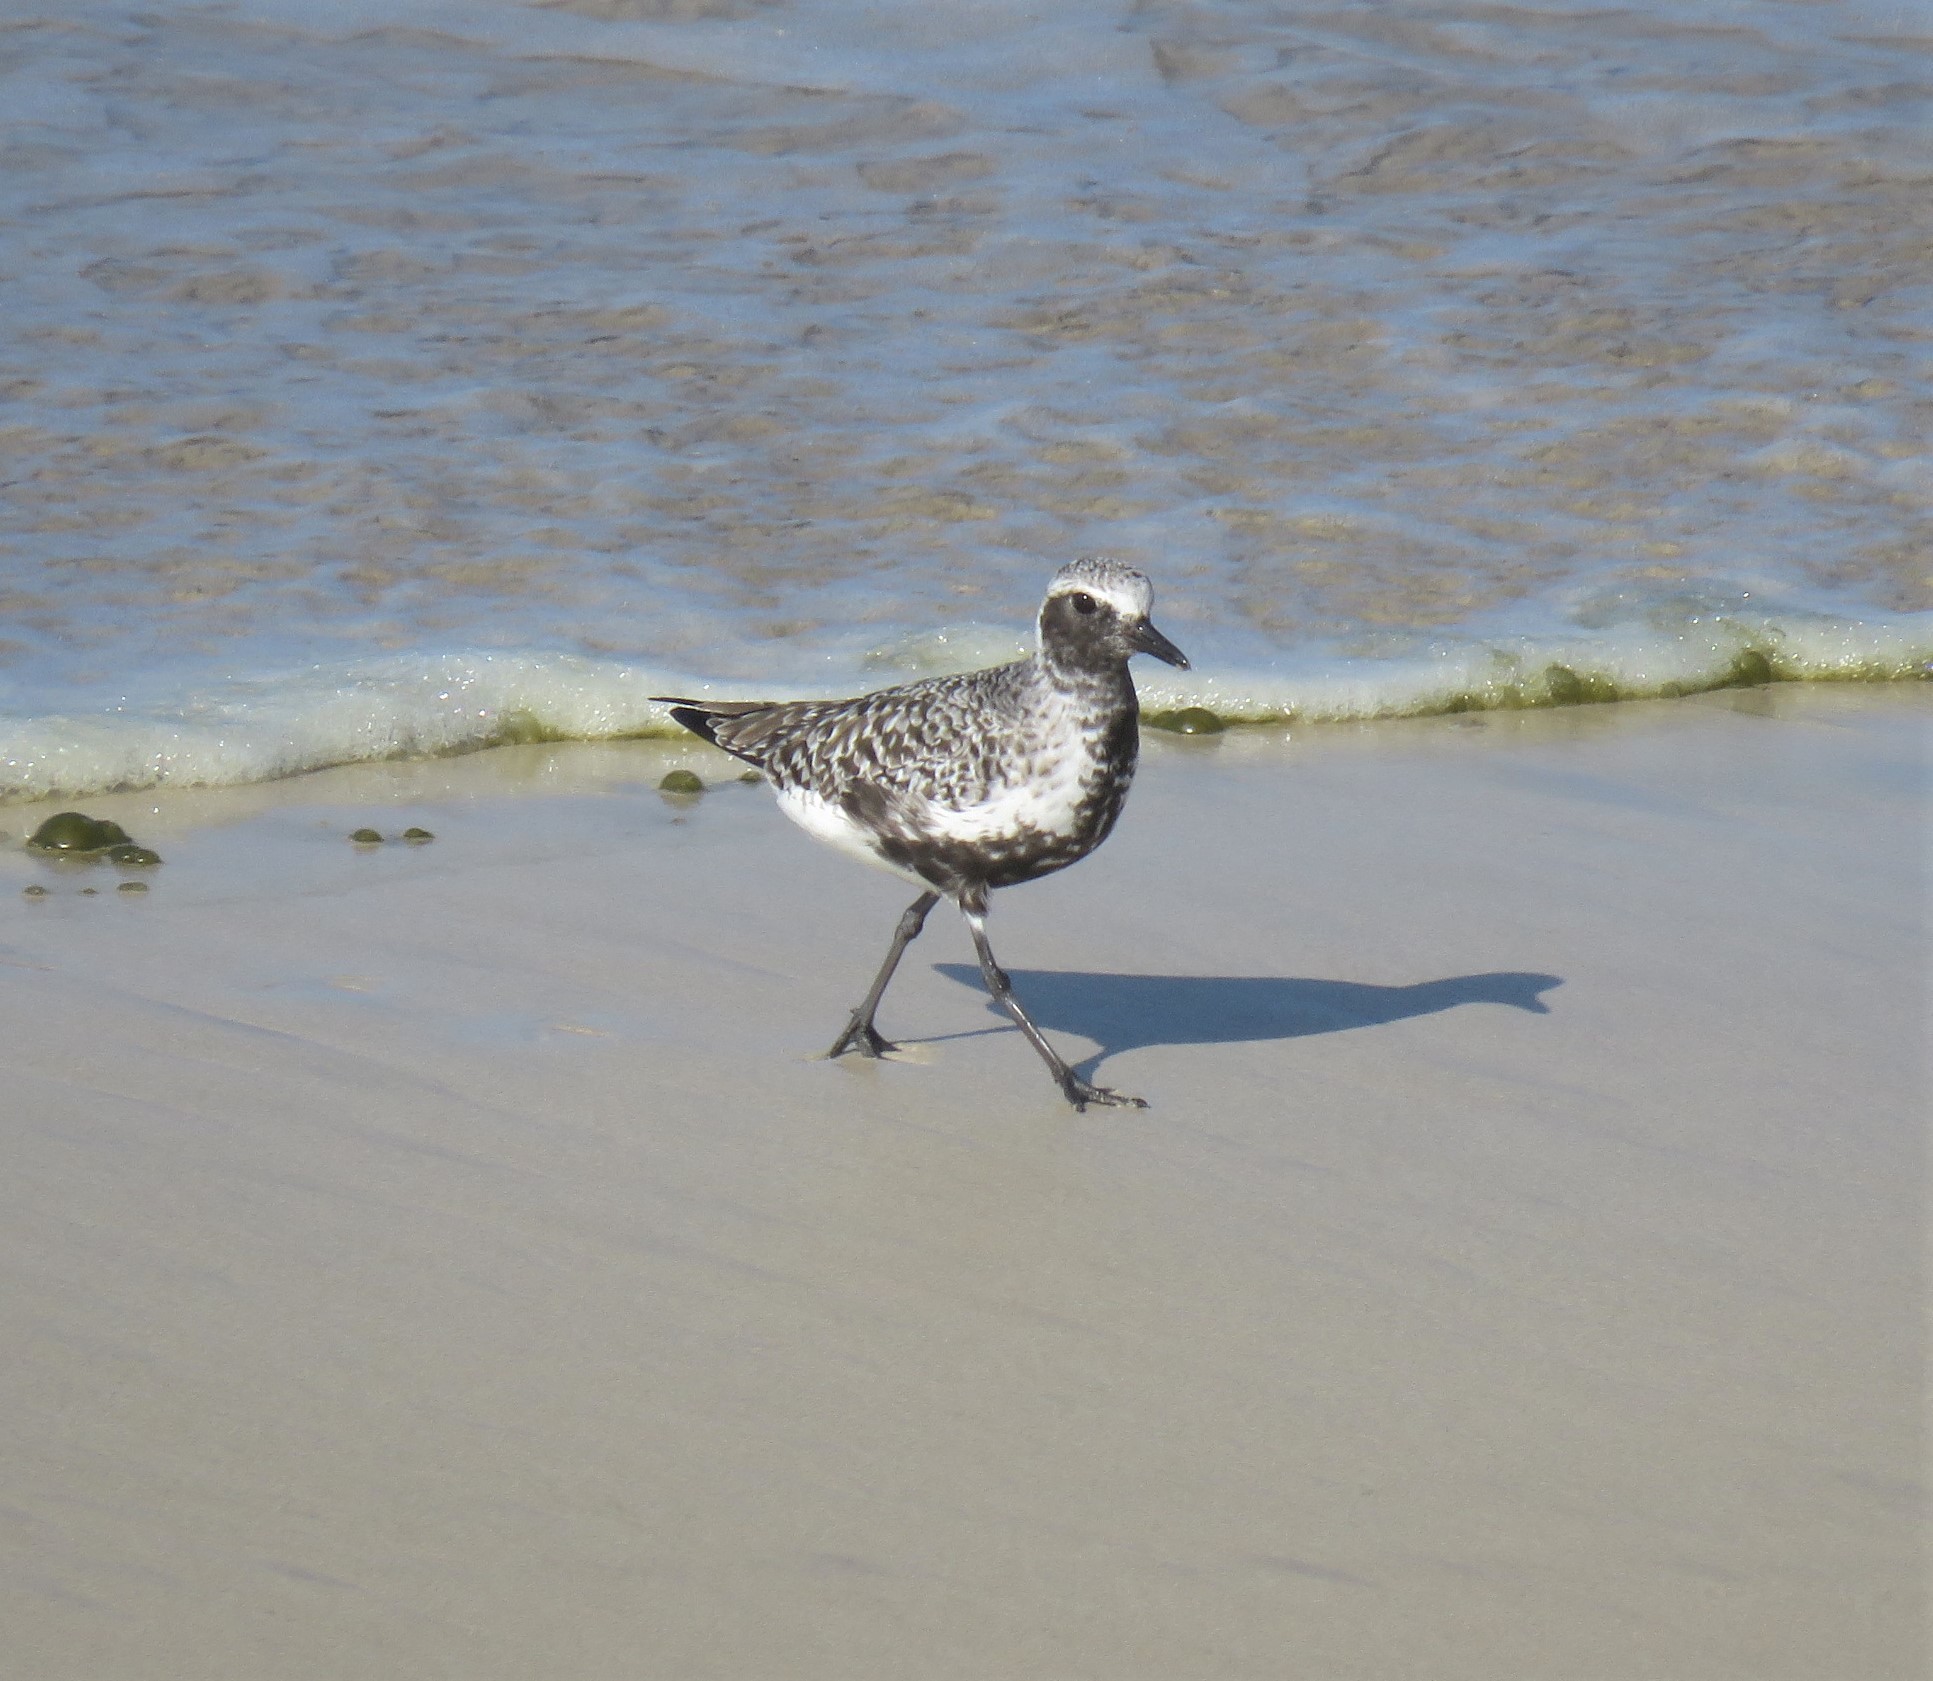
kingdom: Animalia
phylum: Chordata
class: Aves
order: Charadriiformes
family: Charadriidae
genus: Pluvialis
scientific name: Pluvialis squatarola
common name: Grey plover
